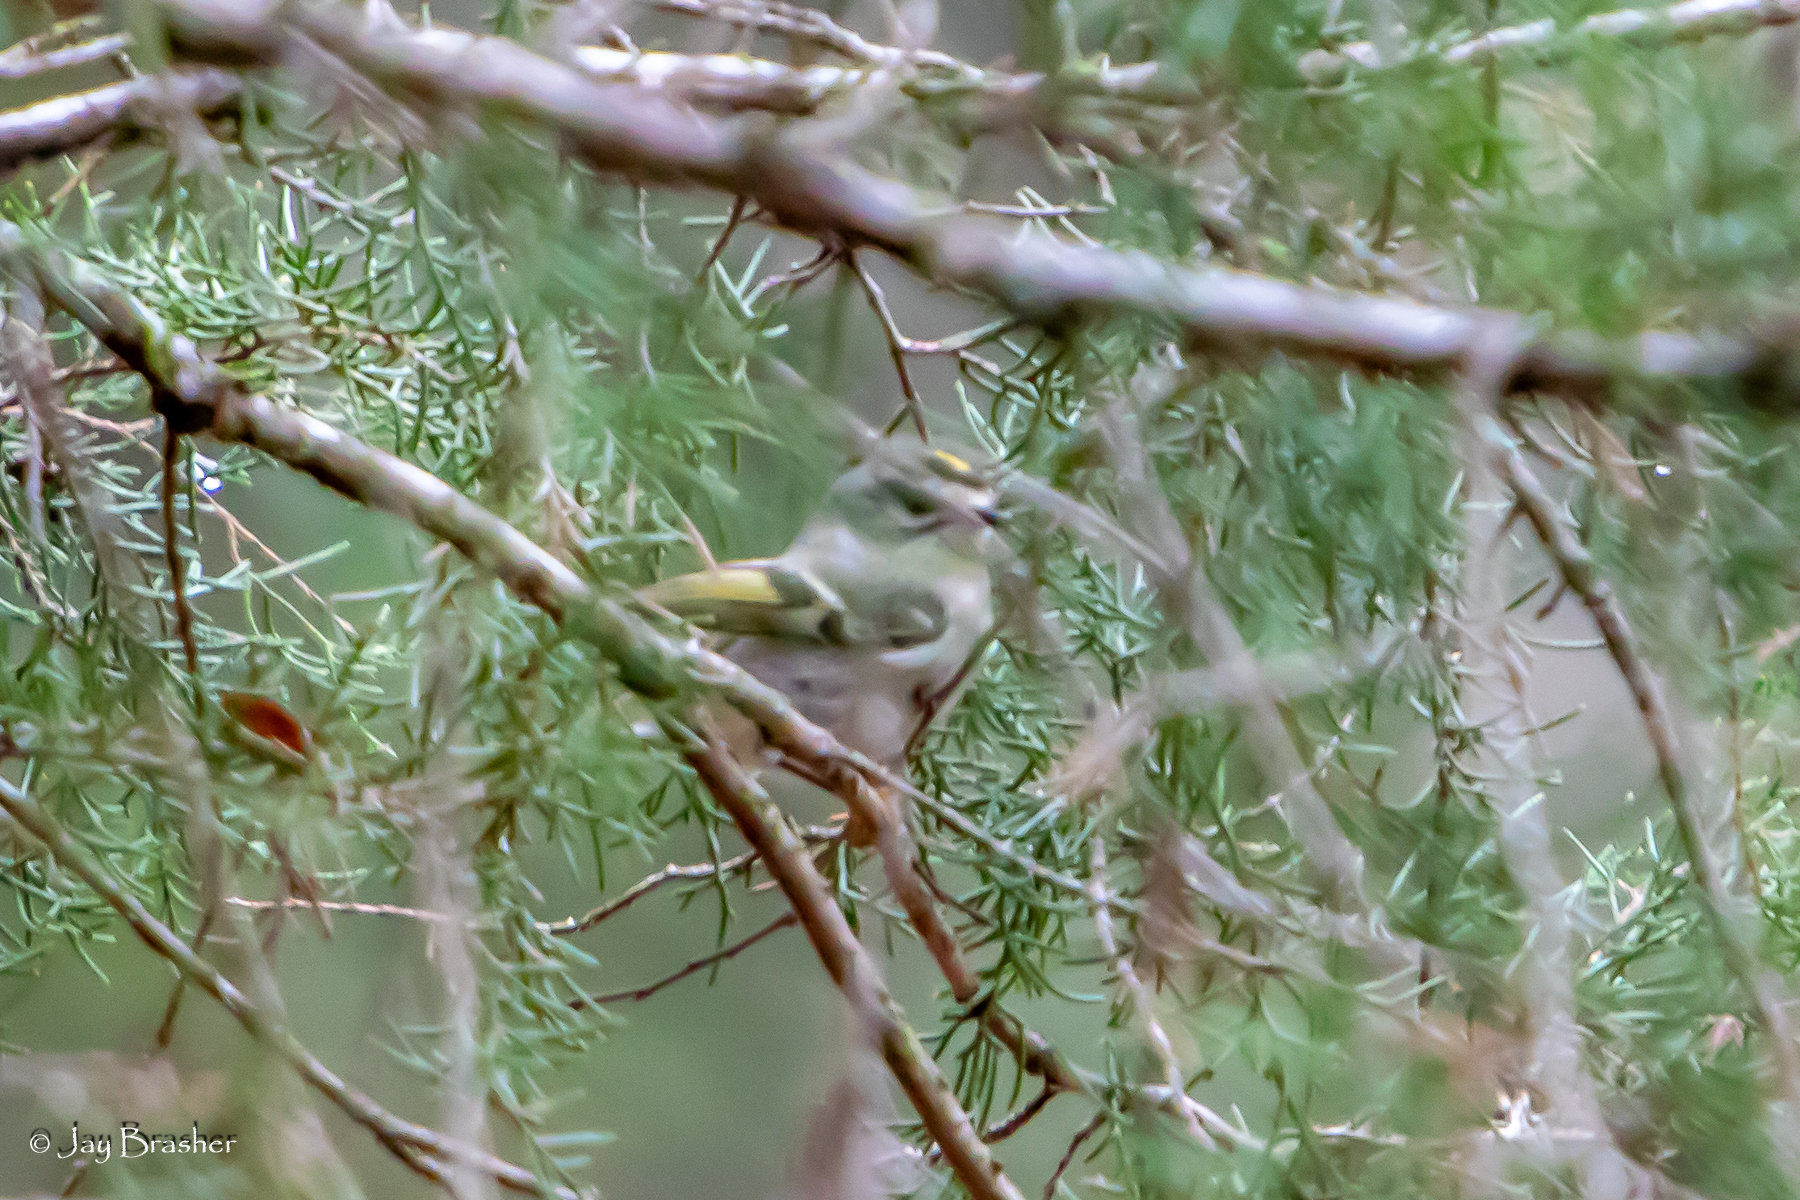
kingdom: Animalia
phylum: Chordata
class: Aves
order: Passeriformes
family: Regulidae
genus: Regulus
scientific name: Regulus satrapa
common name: Golden-crowned kinglet
